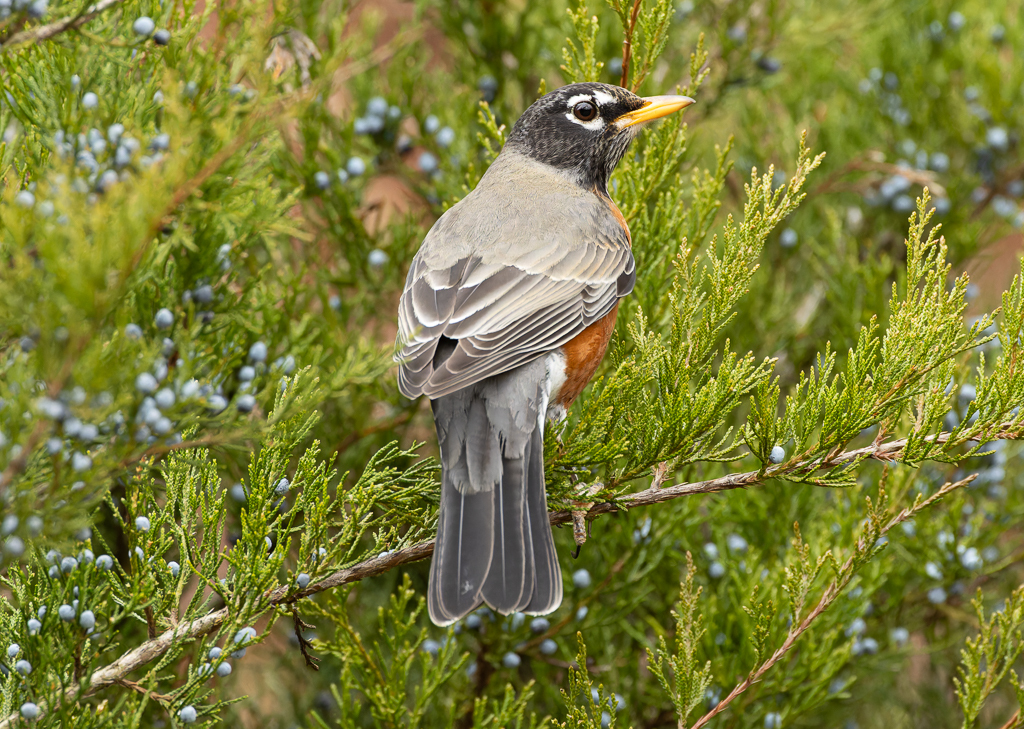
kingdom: Animalia
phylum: Chordata
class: Aves
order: Passeriformes
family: Turdidae
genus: Turdus
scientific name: Turdus migratorius
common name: American robin
